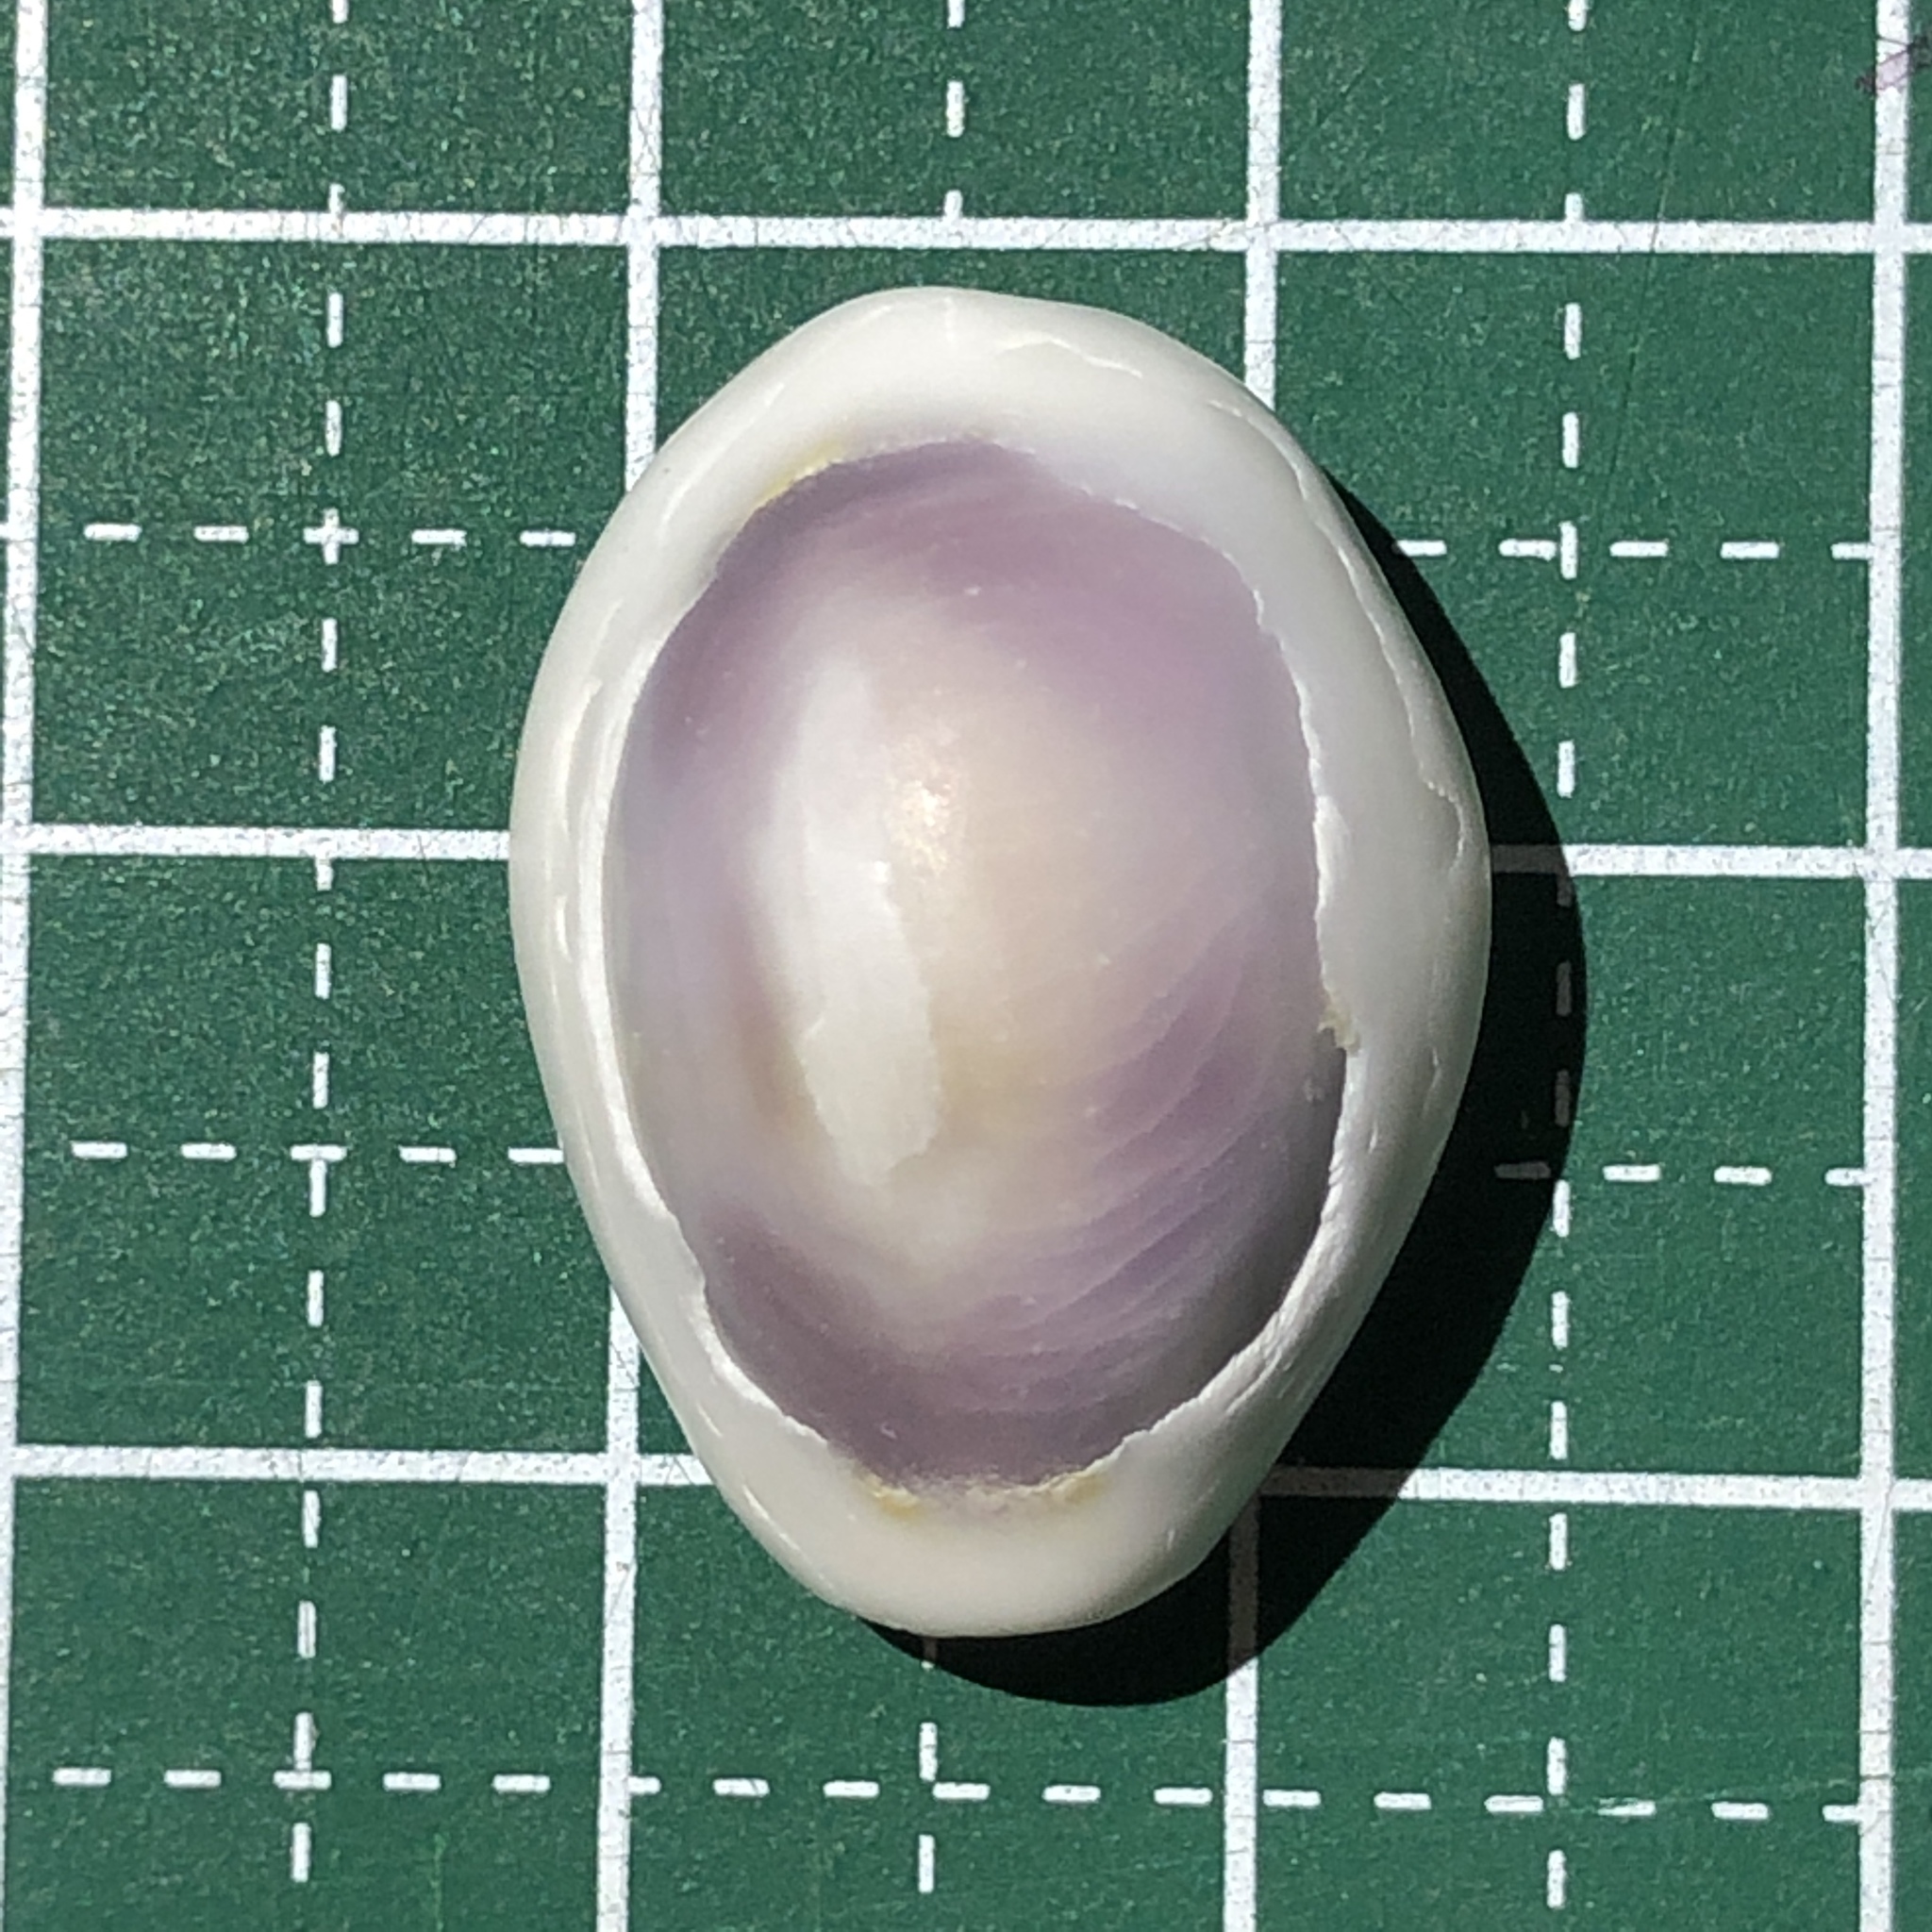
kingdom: Animalia
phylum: Mollusca
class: Gastropoda
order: Littorinimorpha
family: Cypraeidae
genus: Monetaria
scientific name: Monetaria annulus
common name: Ring cowrie
